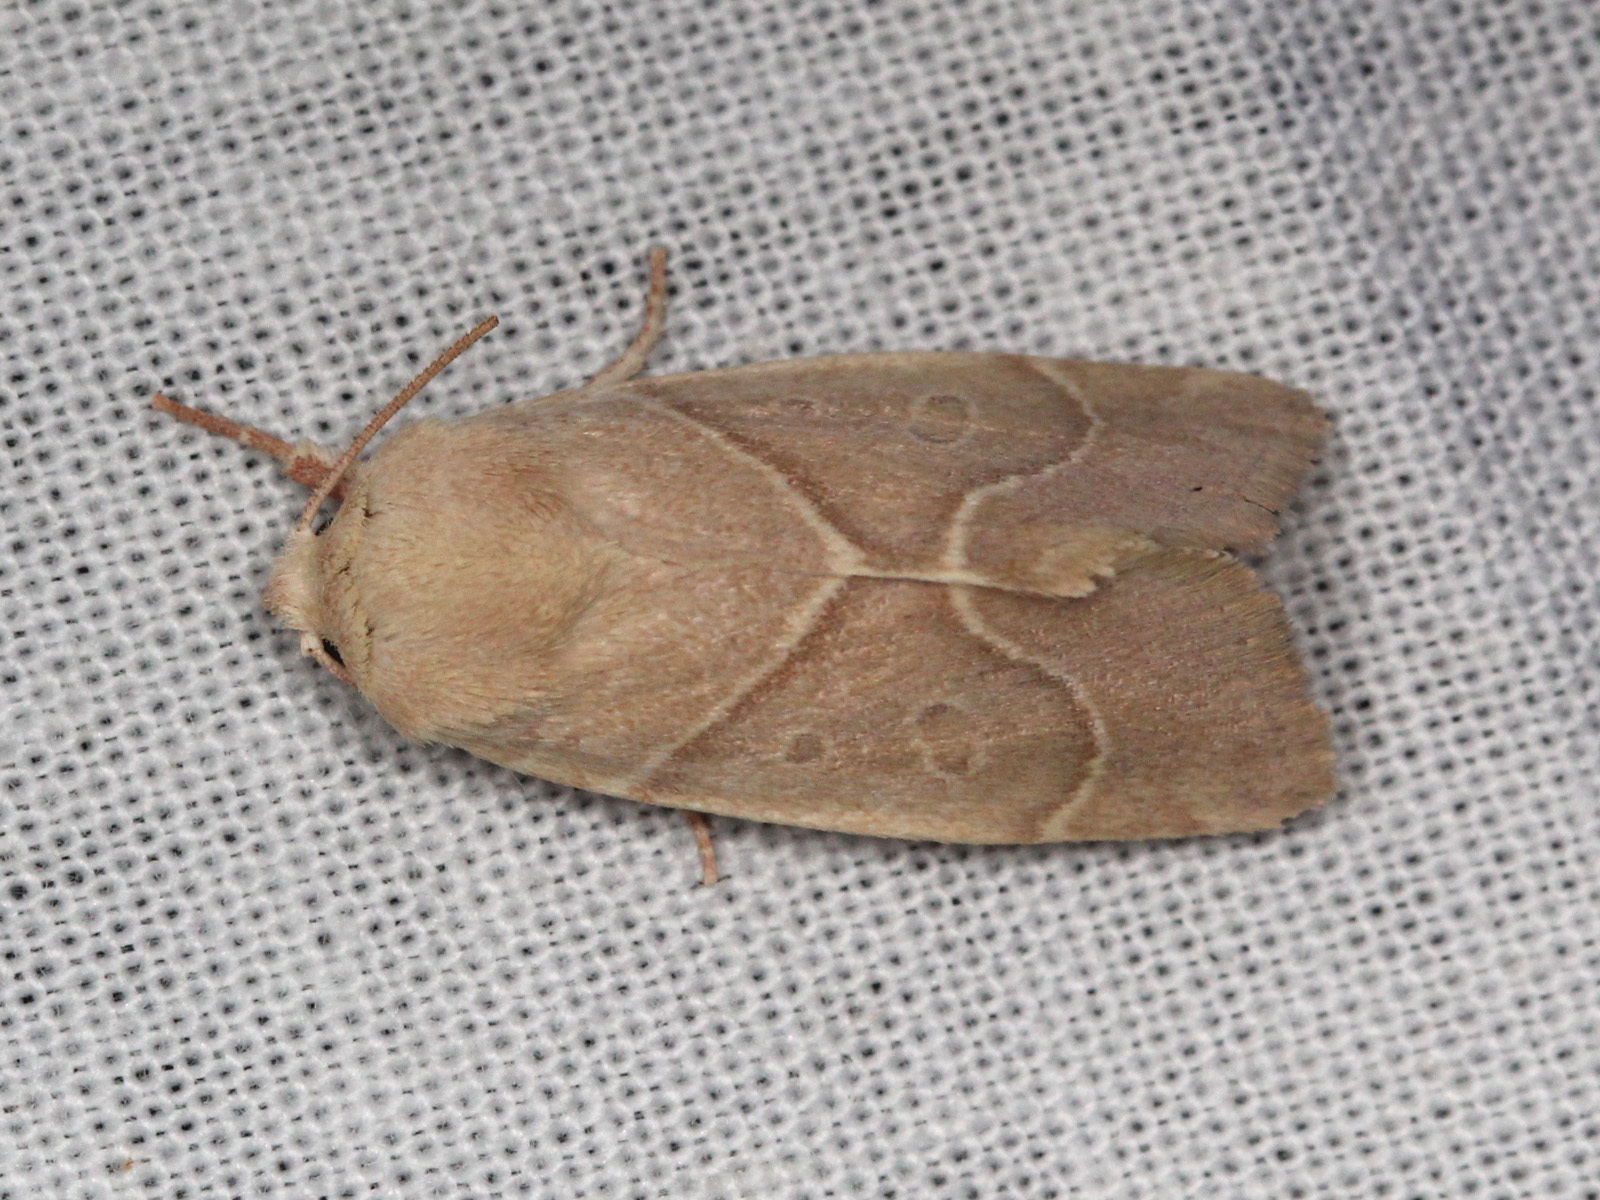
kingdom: Animalia
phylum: Arthropoda
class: Insecta
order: Lepidoptera
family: Noctuidae
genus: Cosmia
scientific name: Cosmia calami
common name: American dun-bar moth
